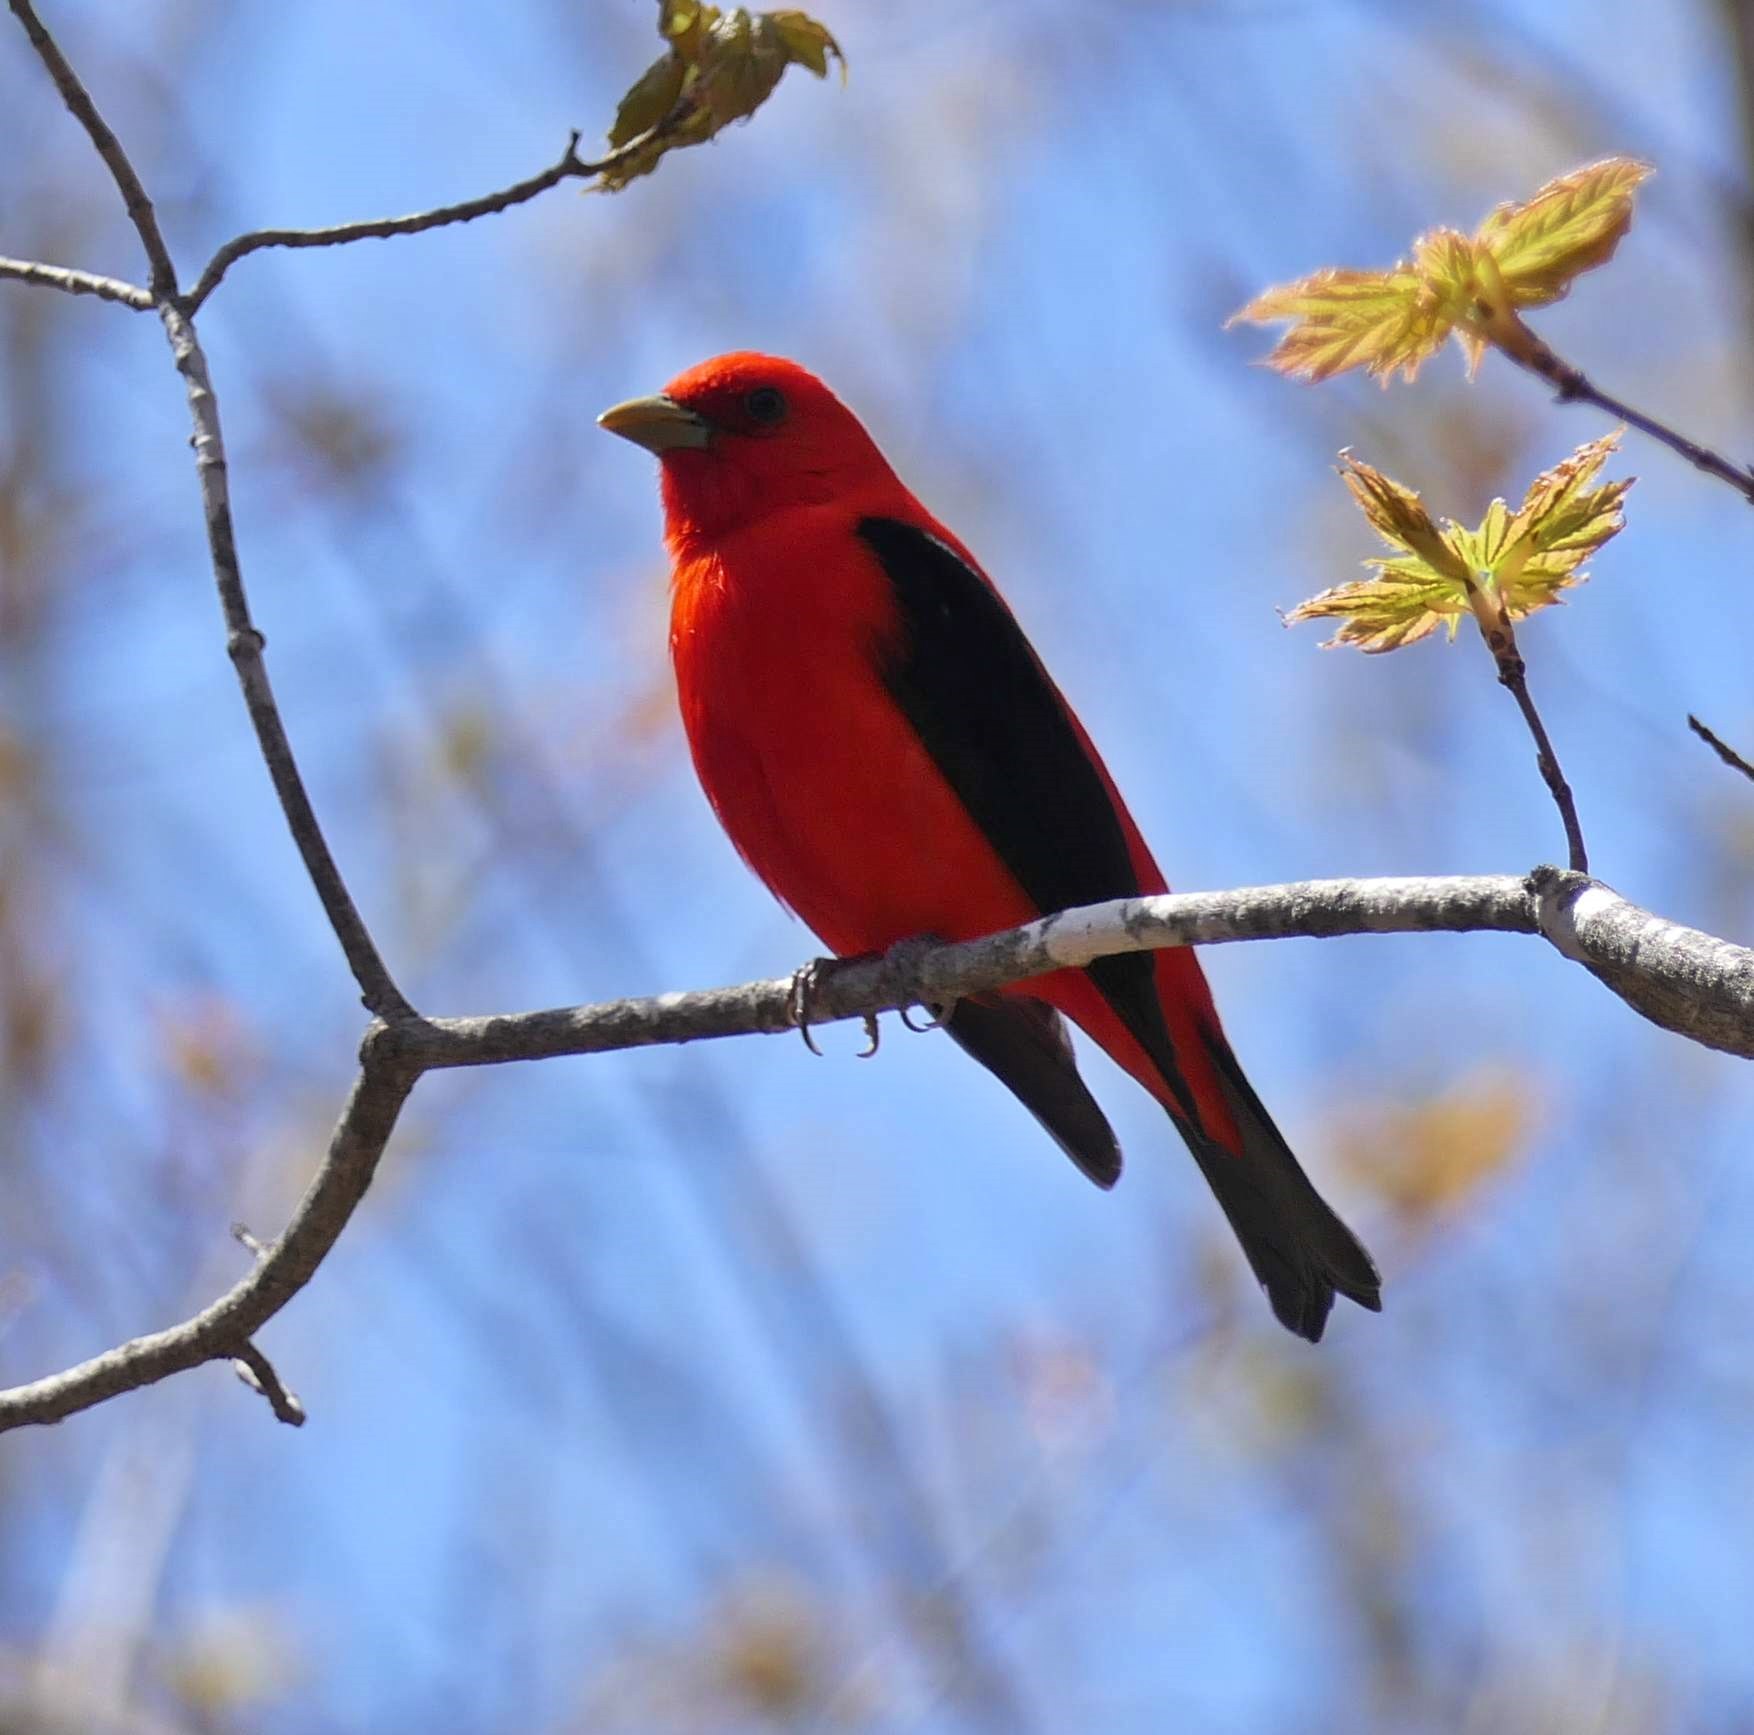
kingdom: Animalia
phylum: Chordata
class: Aves
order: Passeriformes
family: Cardinalidae
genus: Piranga
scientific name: Piranga olivacea
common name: Scarlet tanager
